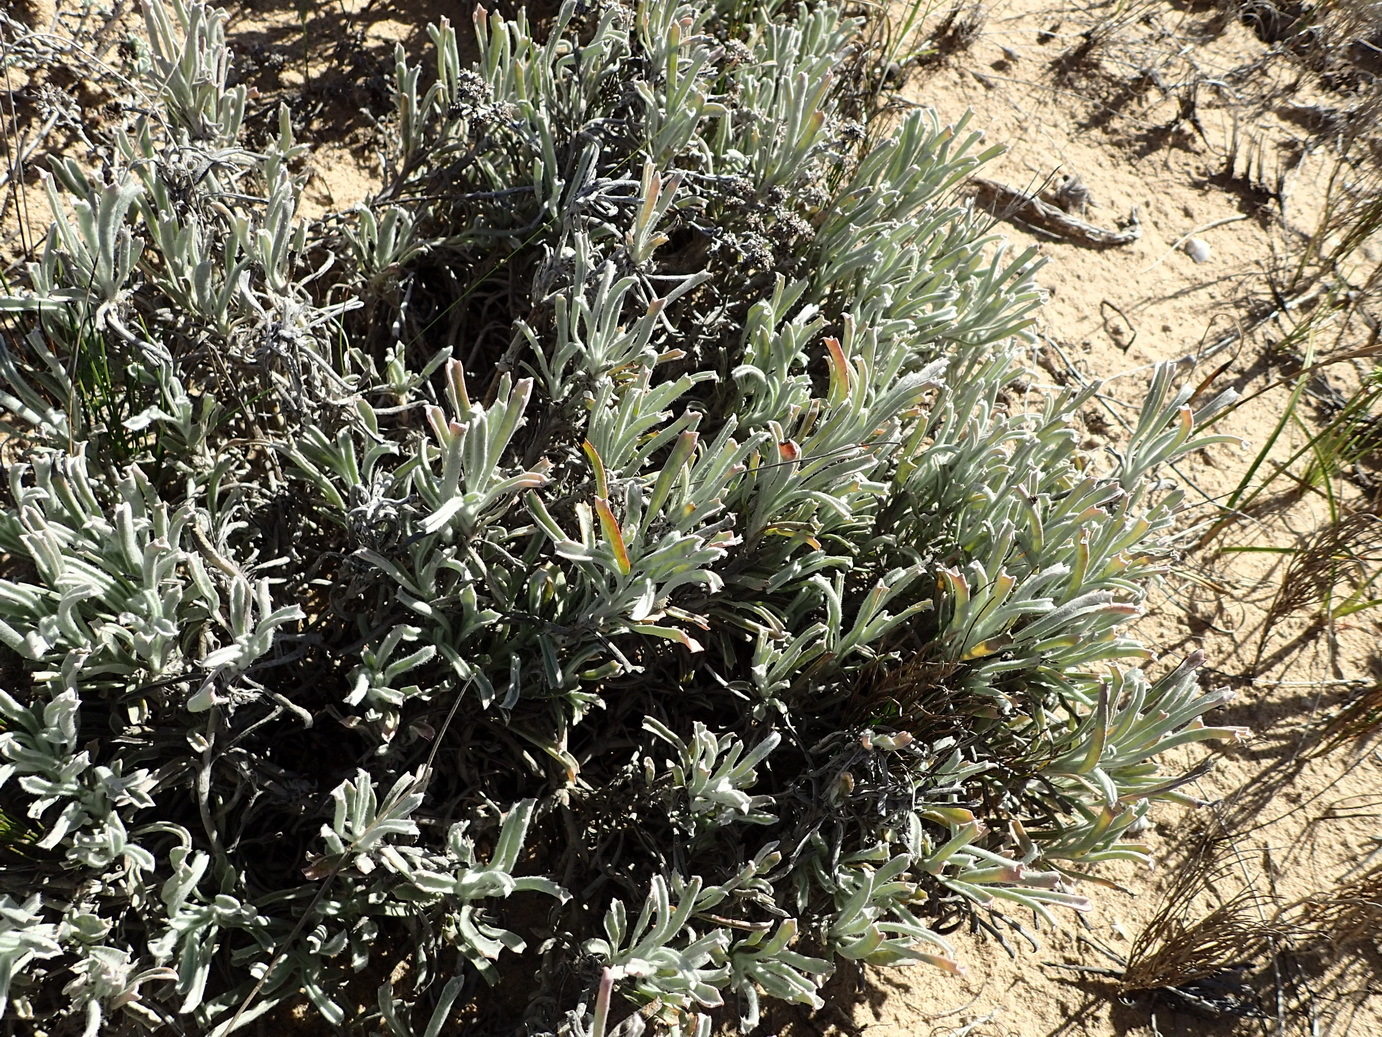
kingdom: Plantae
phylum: Tracheophyta
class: Magnoliopsida
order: Apiales
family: Apiaceae
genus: Centella
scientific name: Centella tridentata
